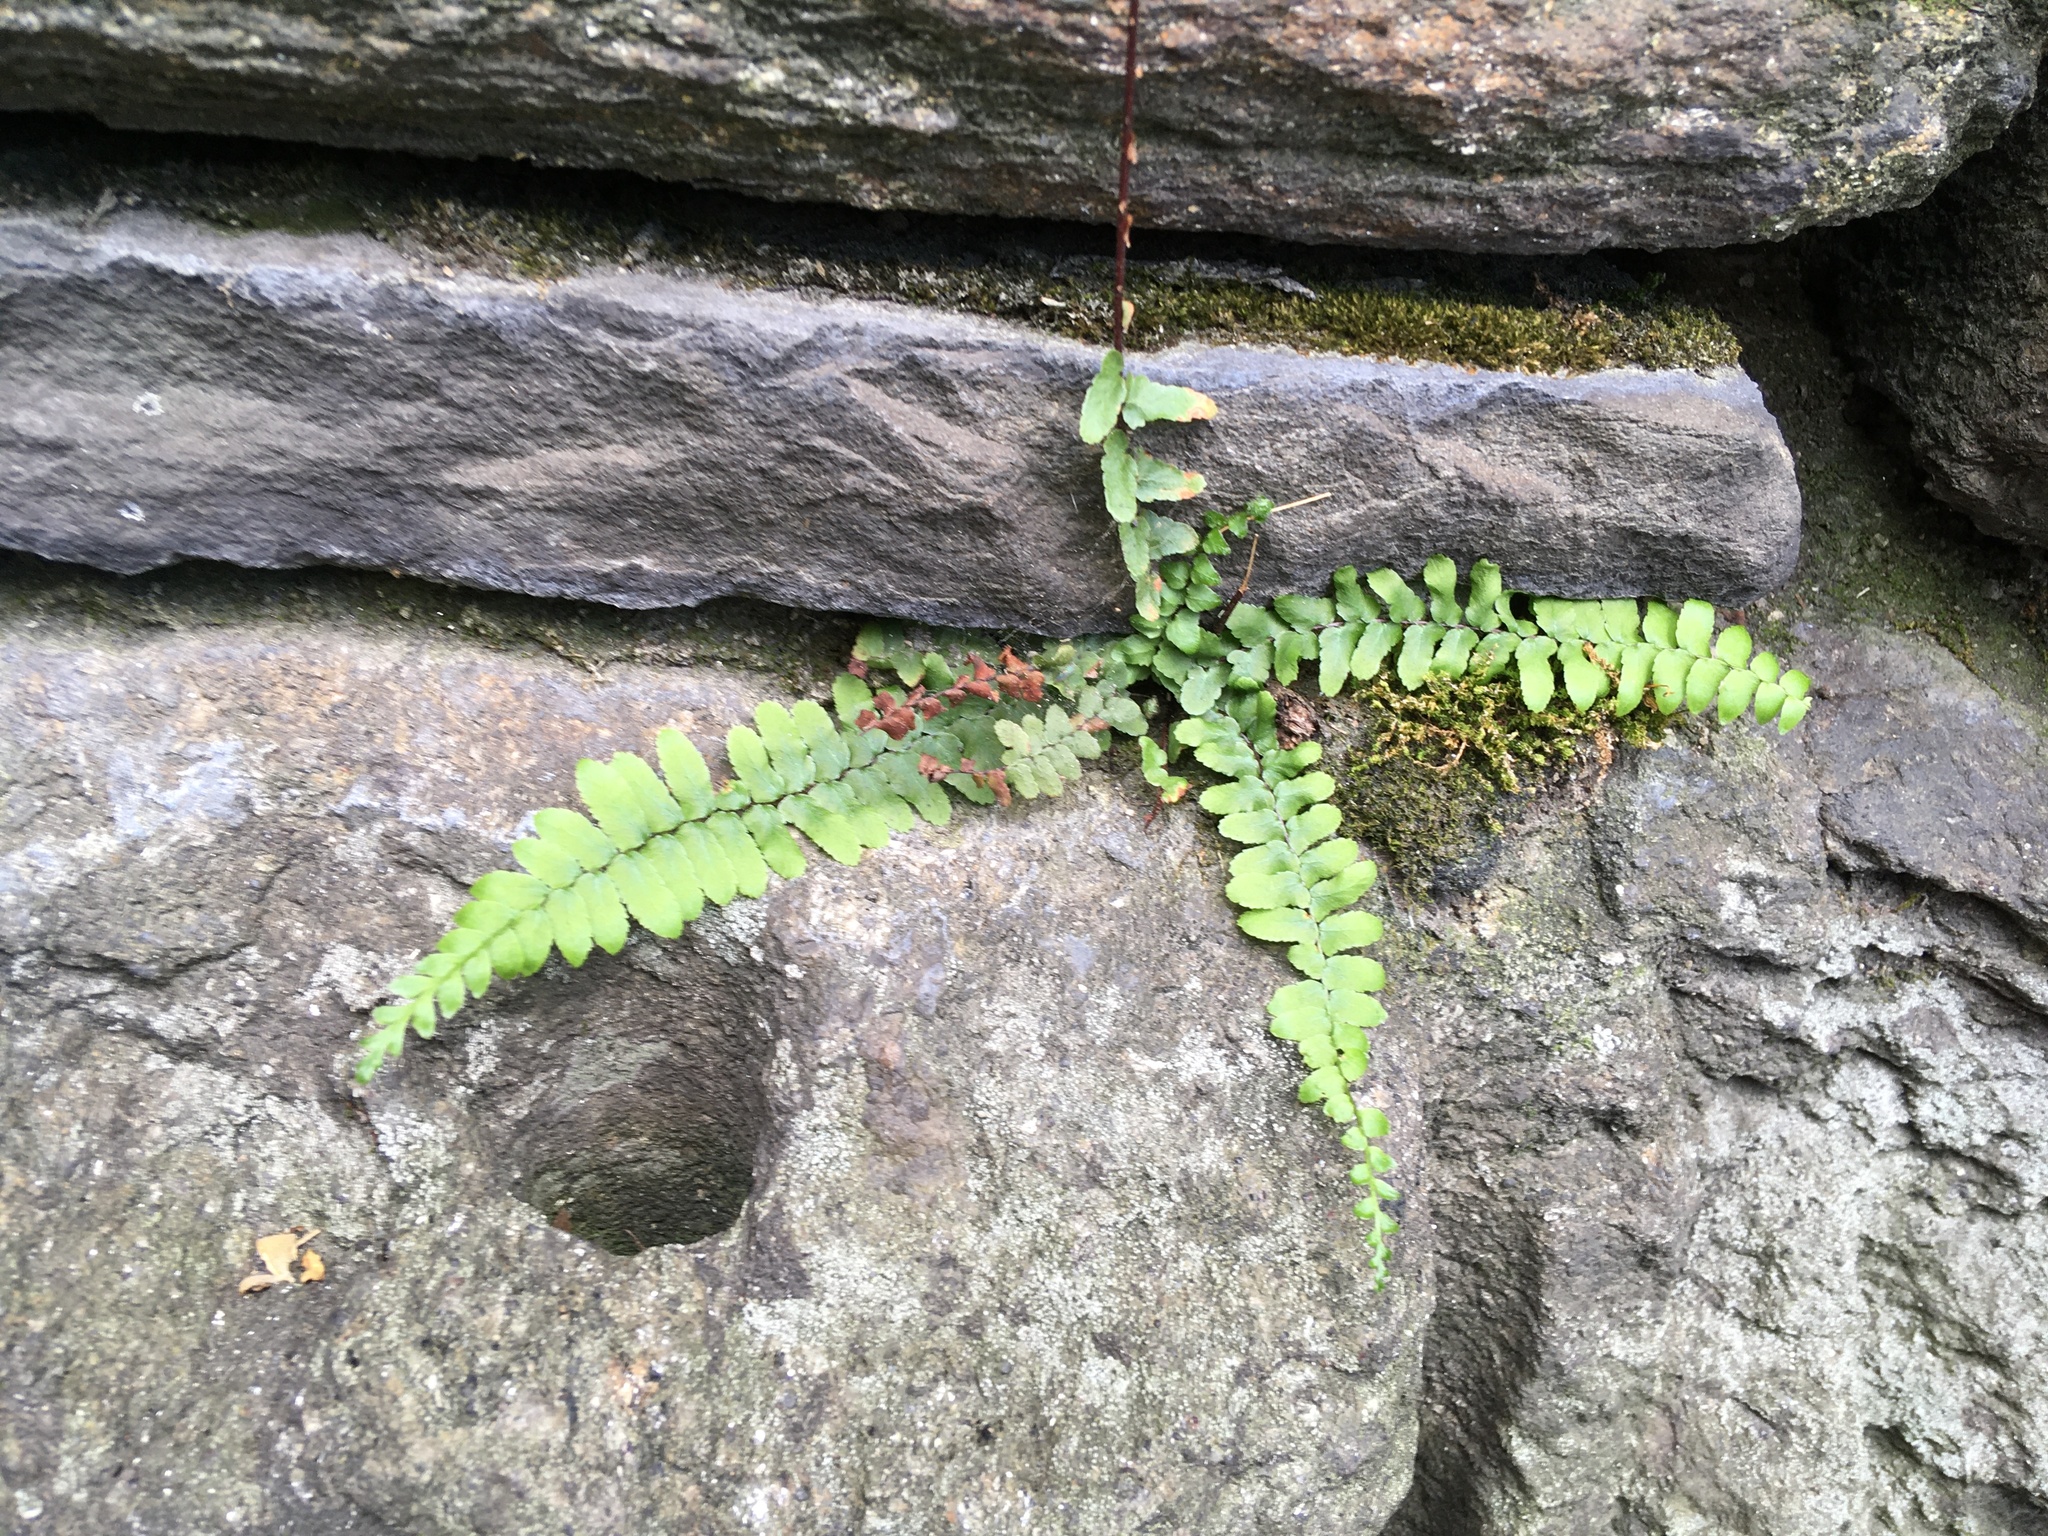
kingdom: Plantae
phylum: Tracheophyta
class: Polypodiopsida
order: Polypodiales
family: Aspleniaceae
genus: Asplenium
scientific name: Asplenium platyneuron
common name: Ebony spleenwort
